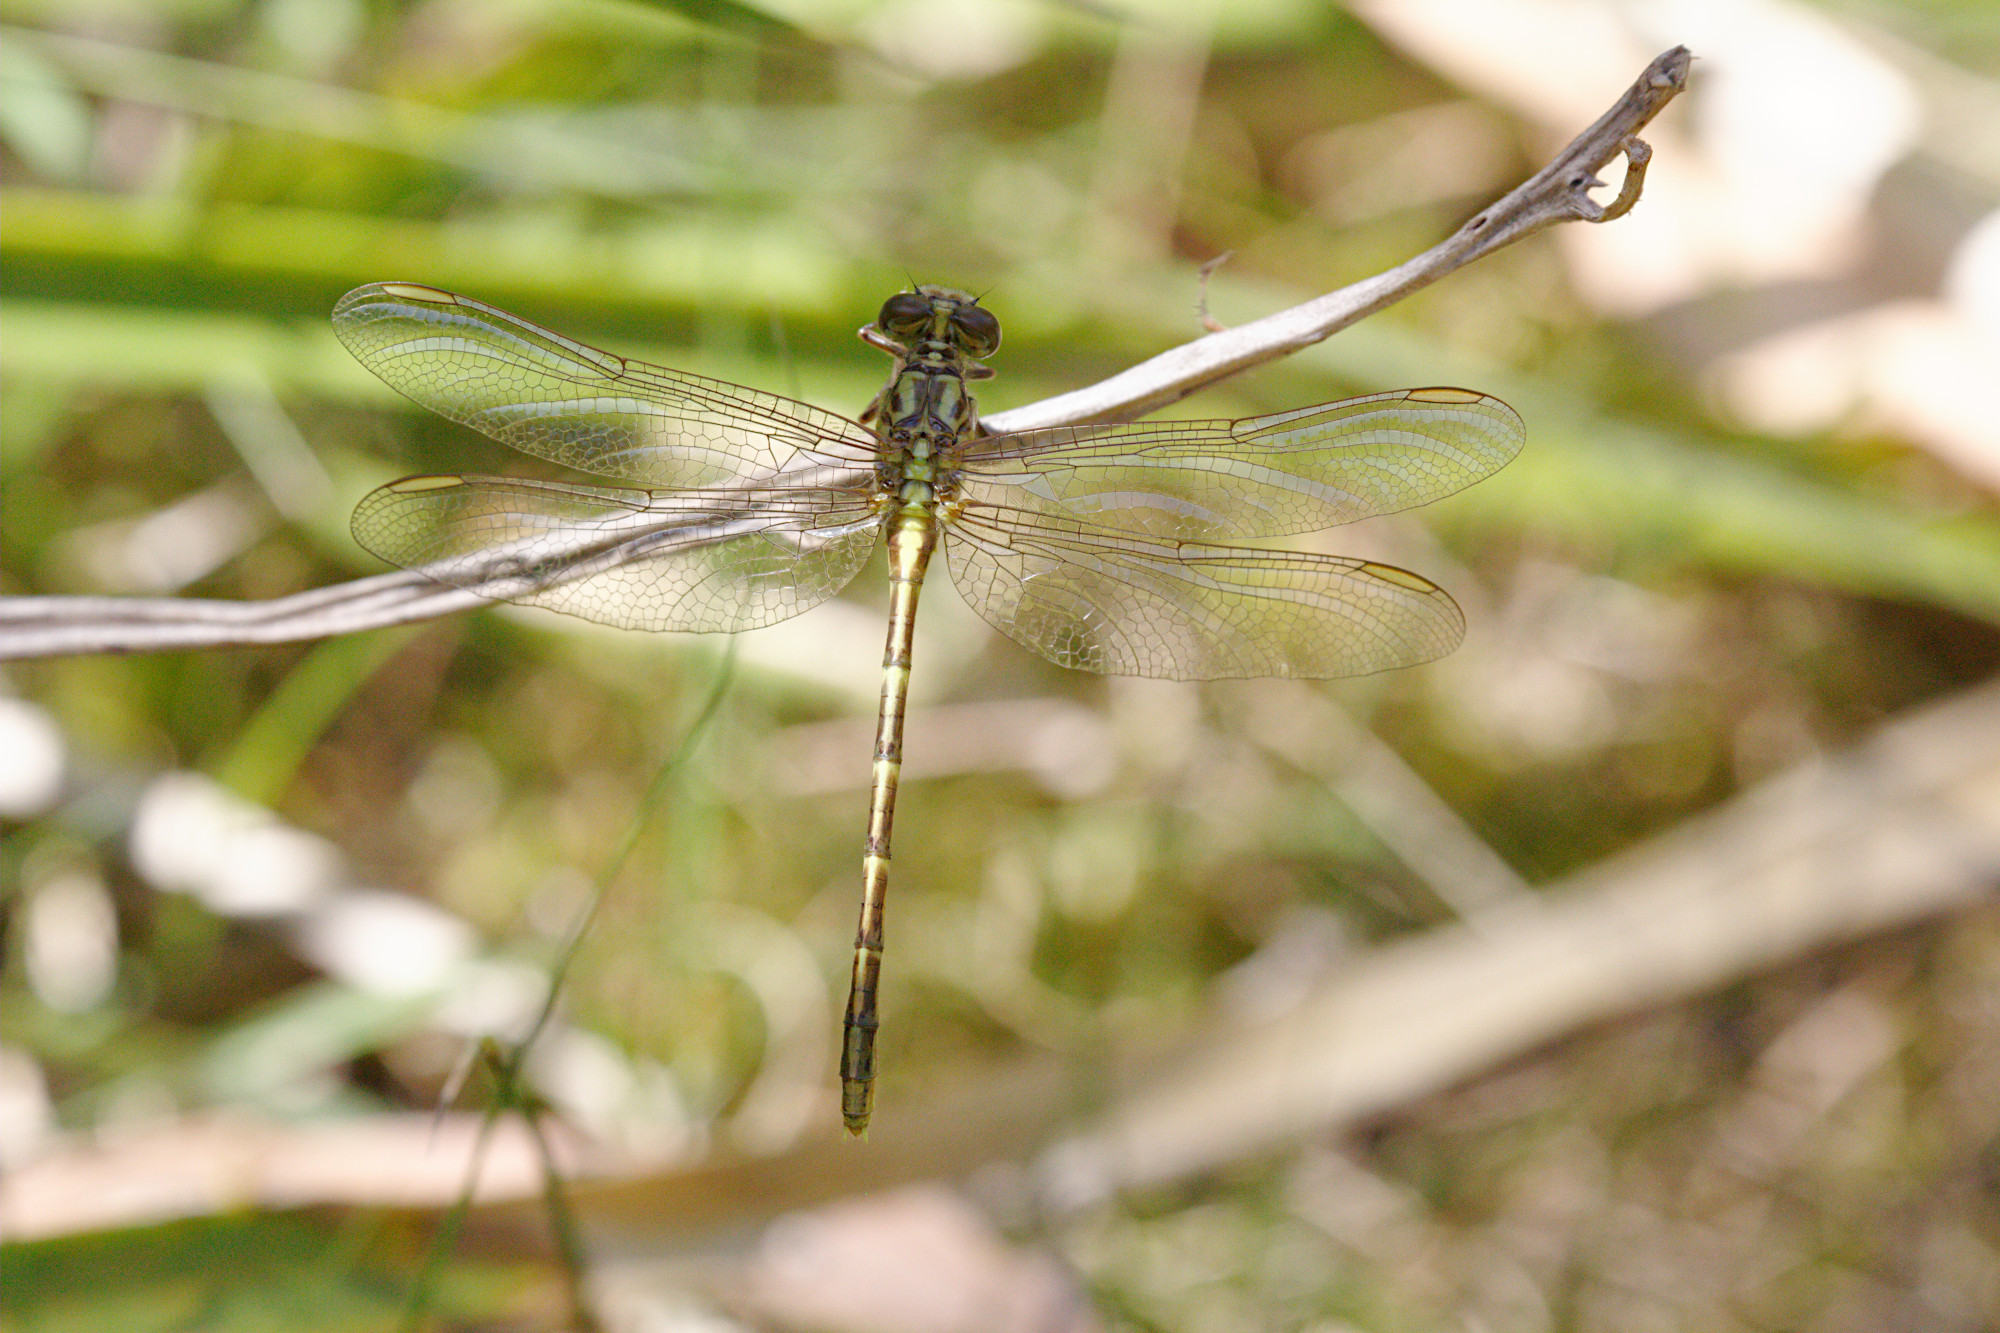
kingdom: Animalia
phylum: Arthropoda
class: Insecta
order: Odonata
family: Gomphidae
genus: Austrogomphus
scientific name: Austrogomphus guerini
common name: Yellow-striped hunter
